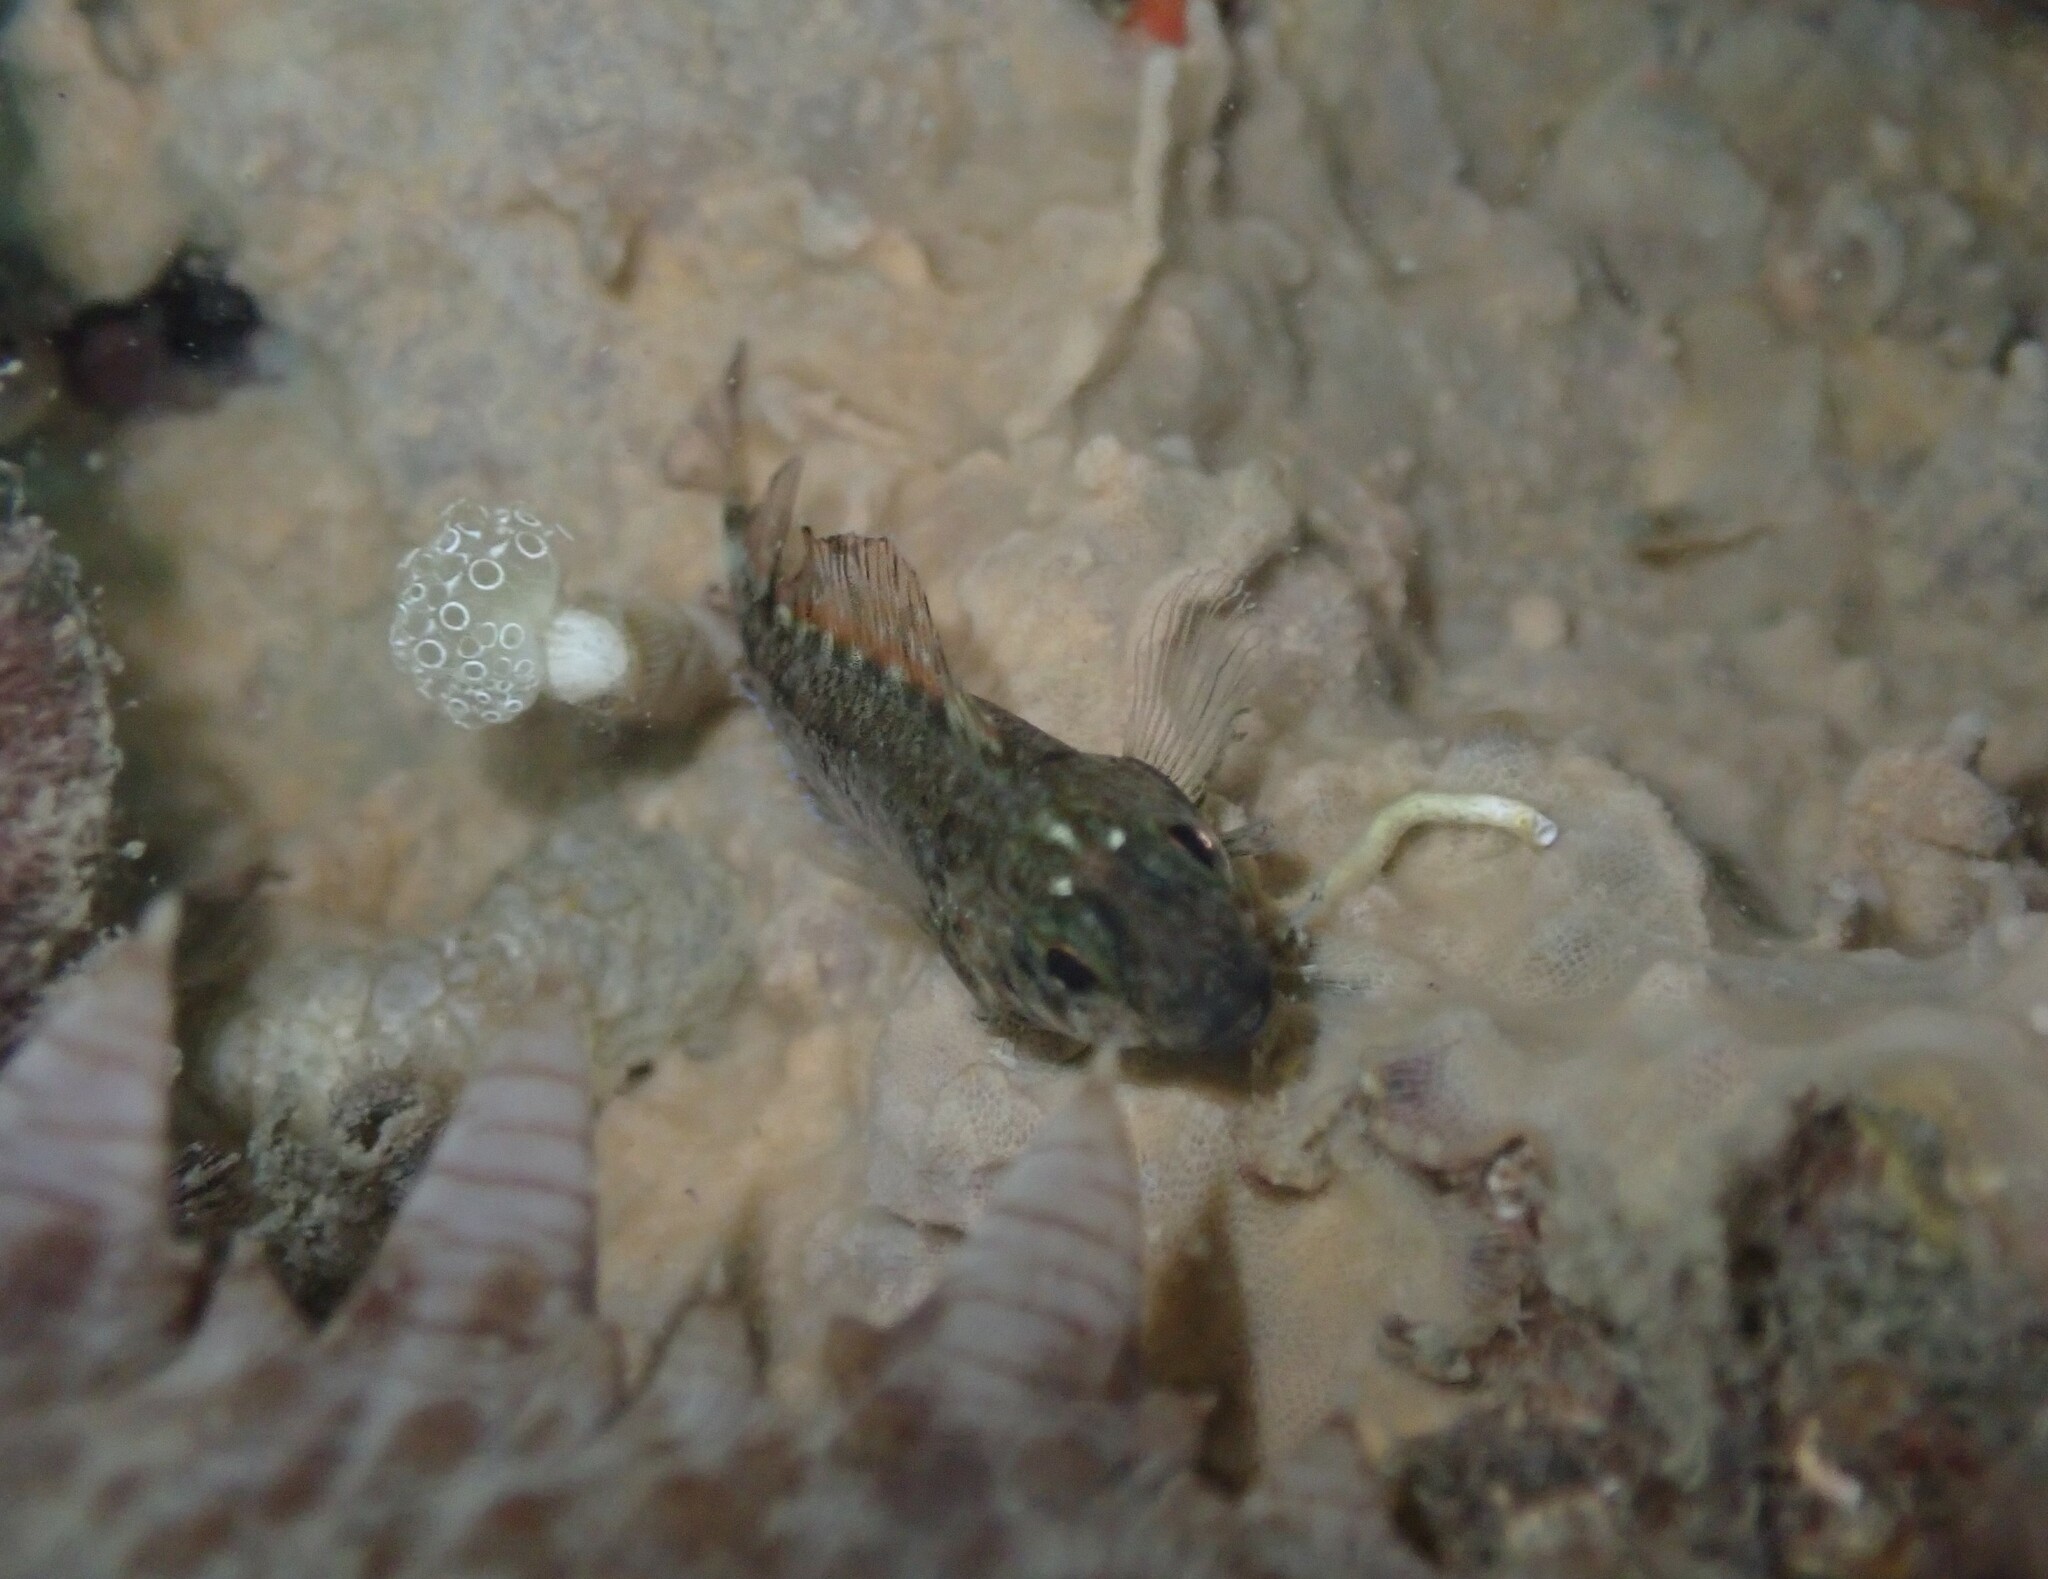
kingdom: Animalia
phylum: Chordata
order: Perciformes
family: Tripterygiidae
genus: Forsterygion
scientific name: Forsterygion lapillum
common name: Common triplefin
